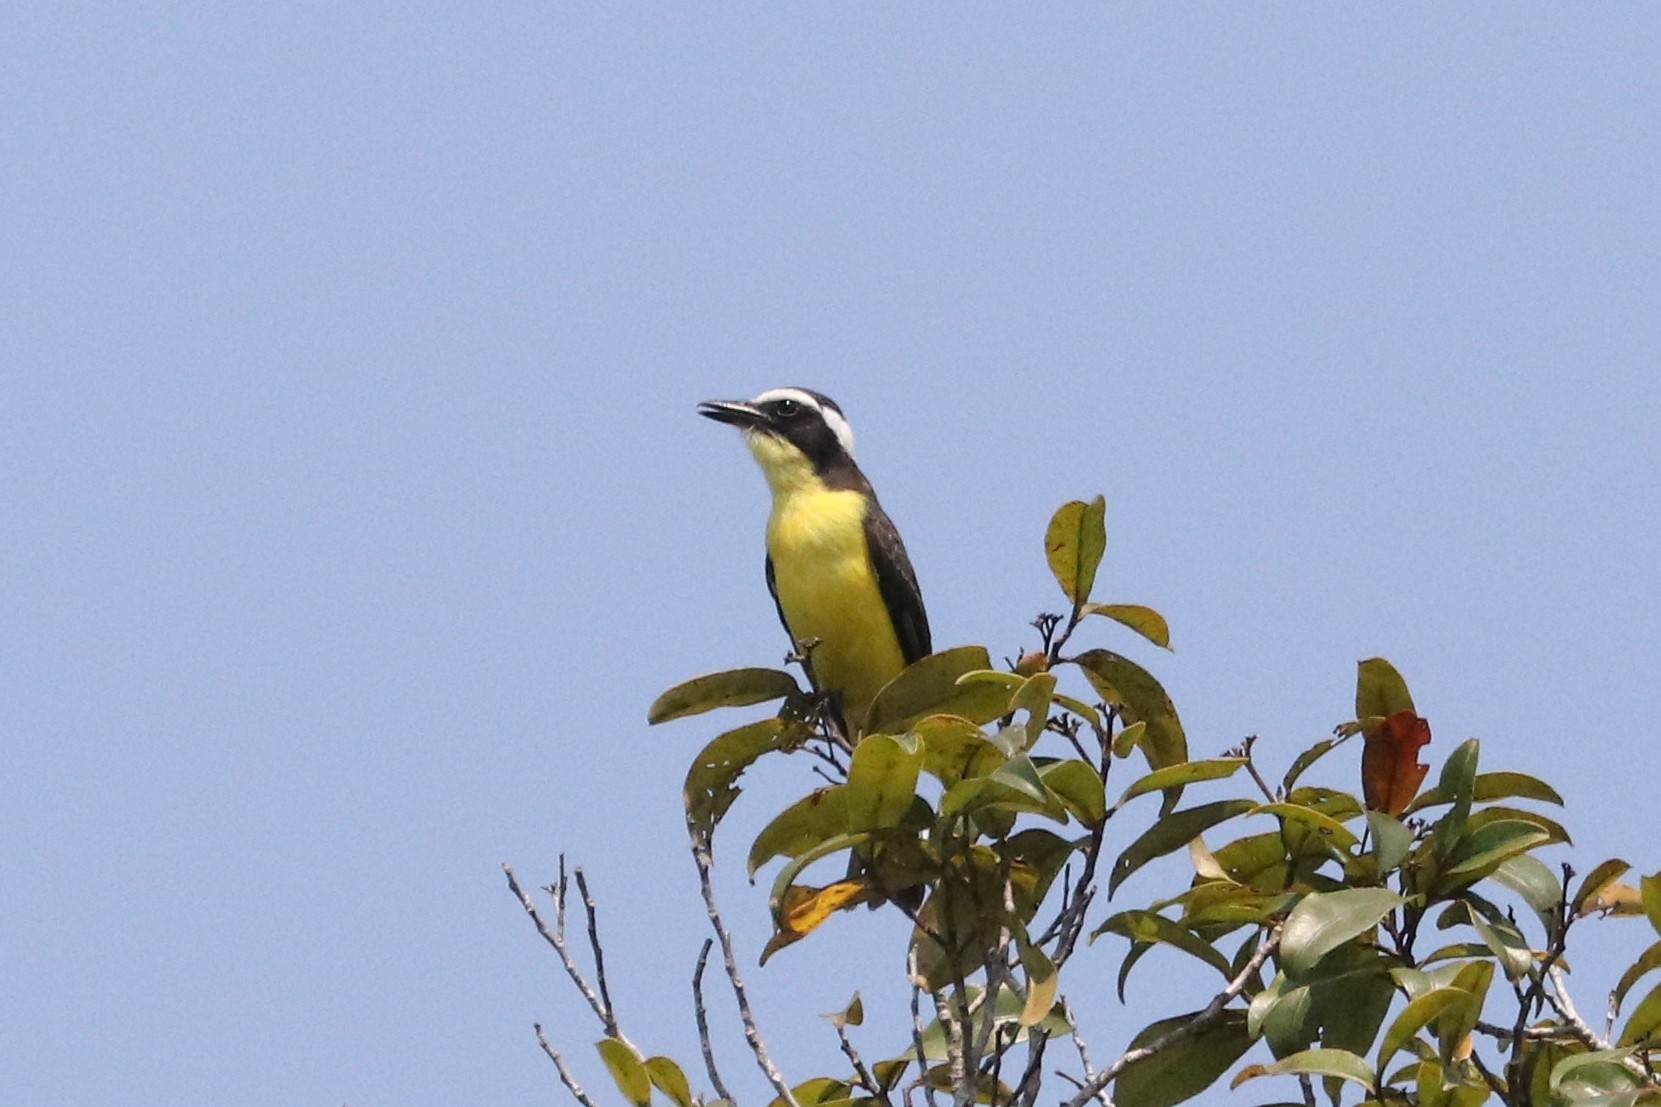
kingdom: Animalia
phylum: Chordata
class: Aves
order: Passeriformes
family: Tyrannidae
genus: Conopias
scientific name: Conopias albovittatus
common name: White-ringed flycatcher
